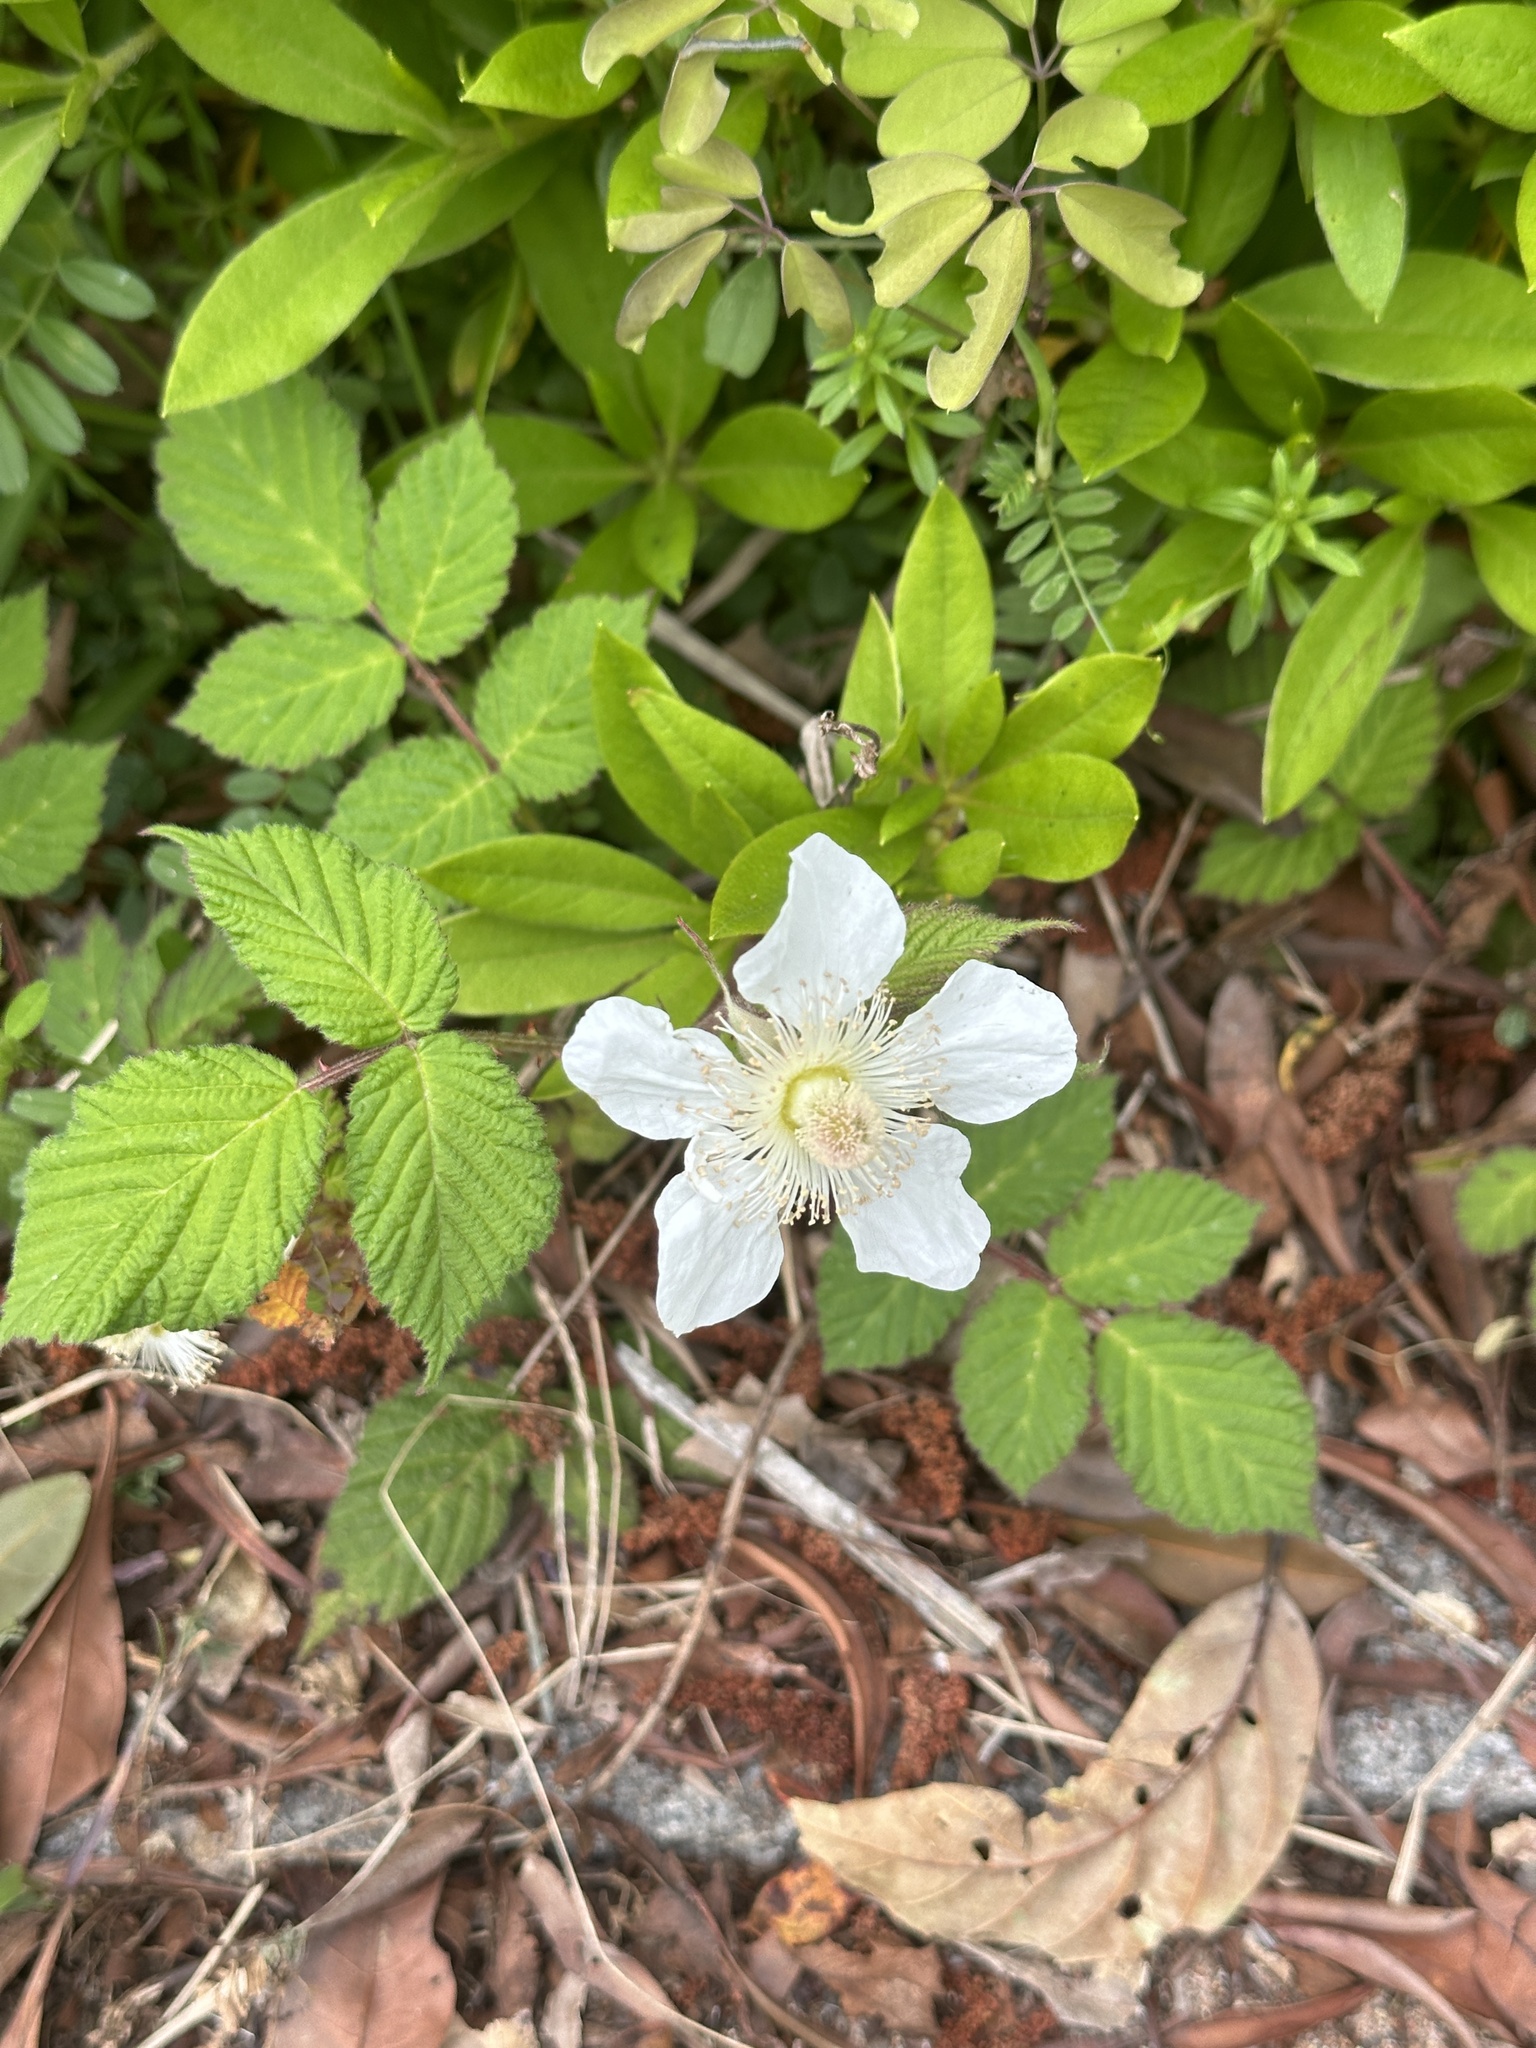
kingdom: Plantae
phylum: Tracheophyta
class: Magnoliopsida
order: Rosales
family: Rosaceae
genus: Rubus
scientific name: Rubus hirsutus
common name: Hirsute raspberry
